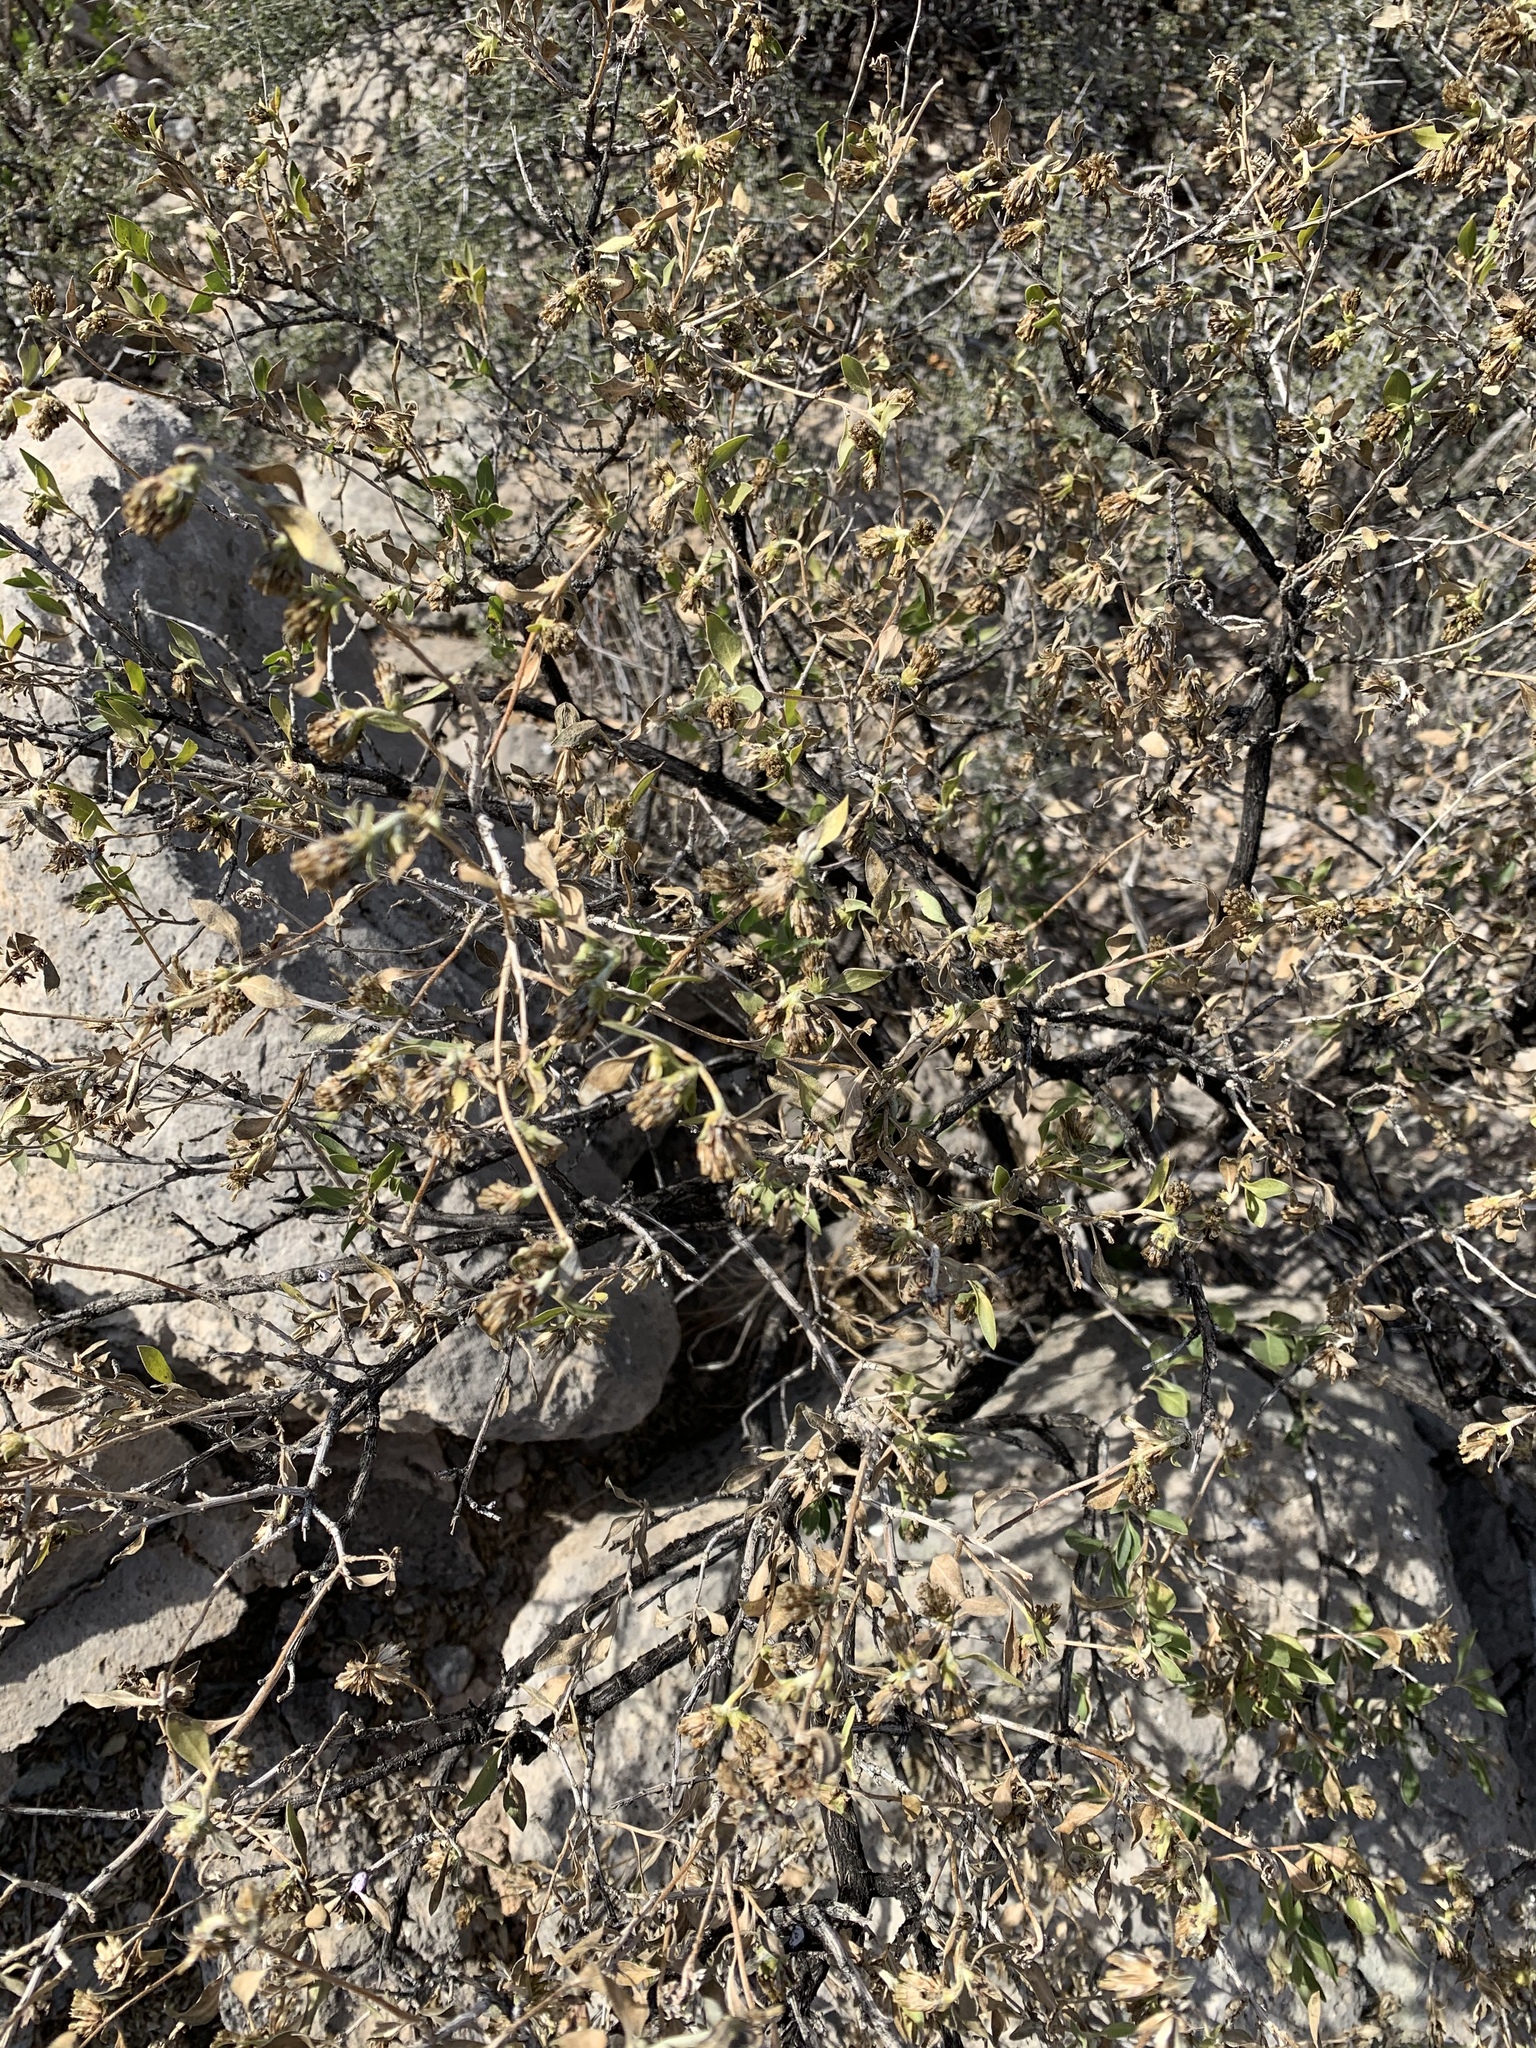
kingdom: Plantae
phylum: Tracheophyta
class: Magnoliopsida
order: Asterales
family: Asteraceae
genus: Flourensia
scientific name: Flourensia cernua
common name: Varnishbush
